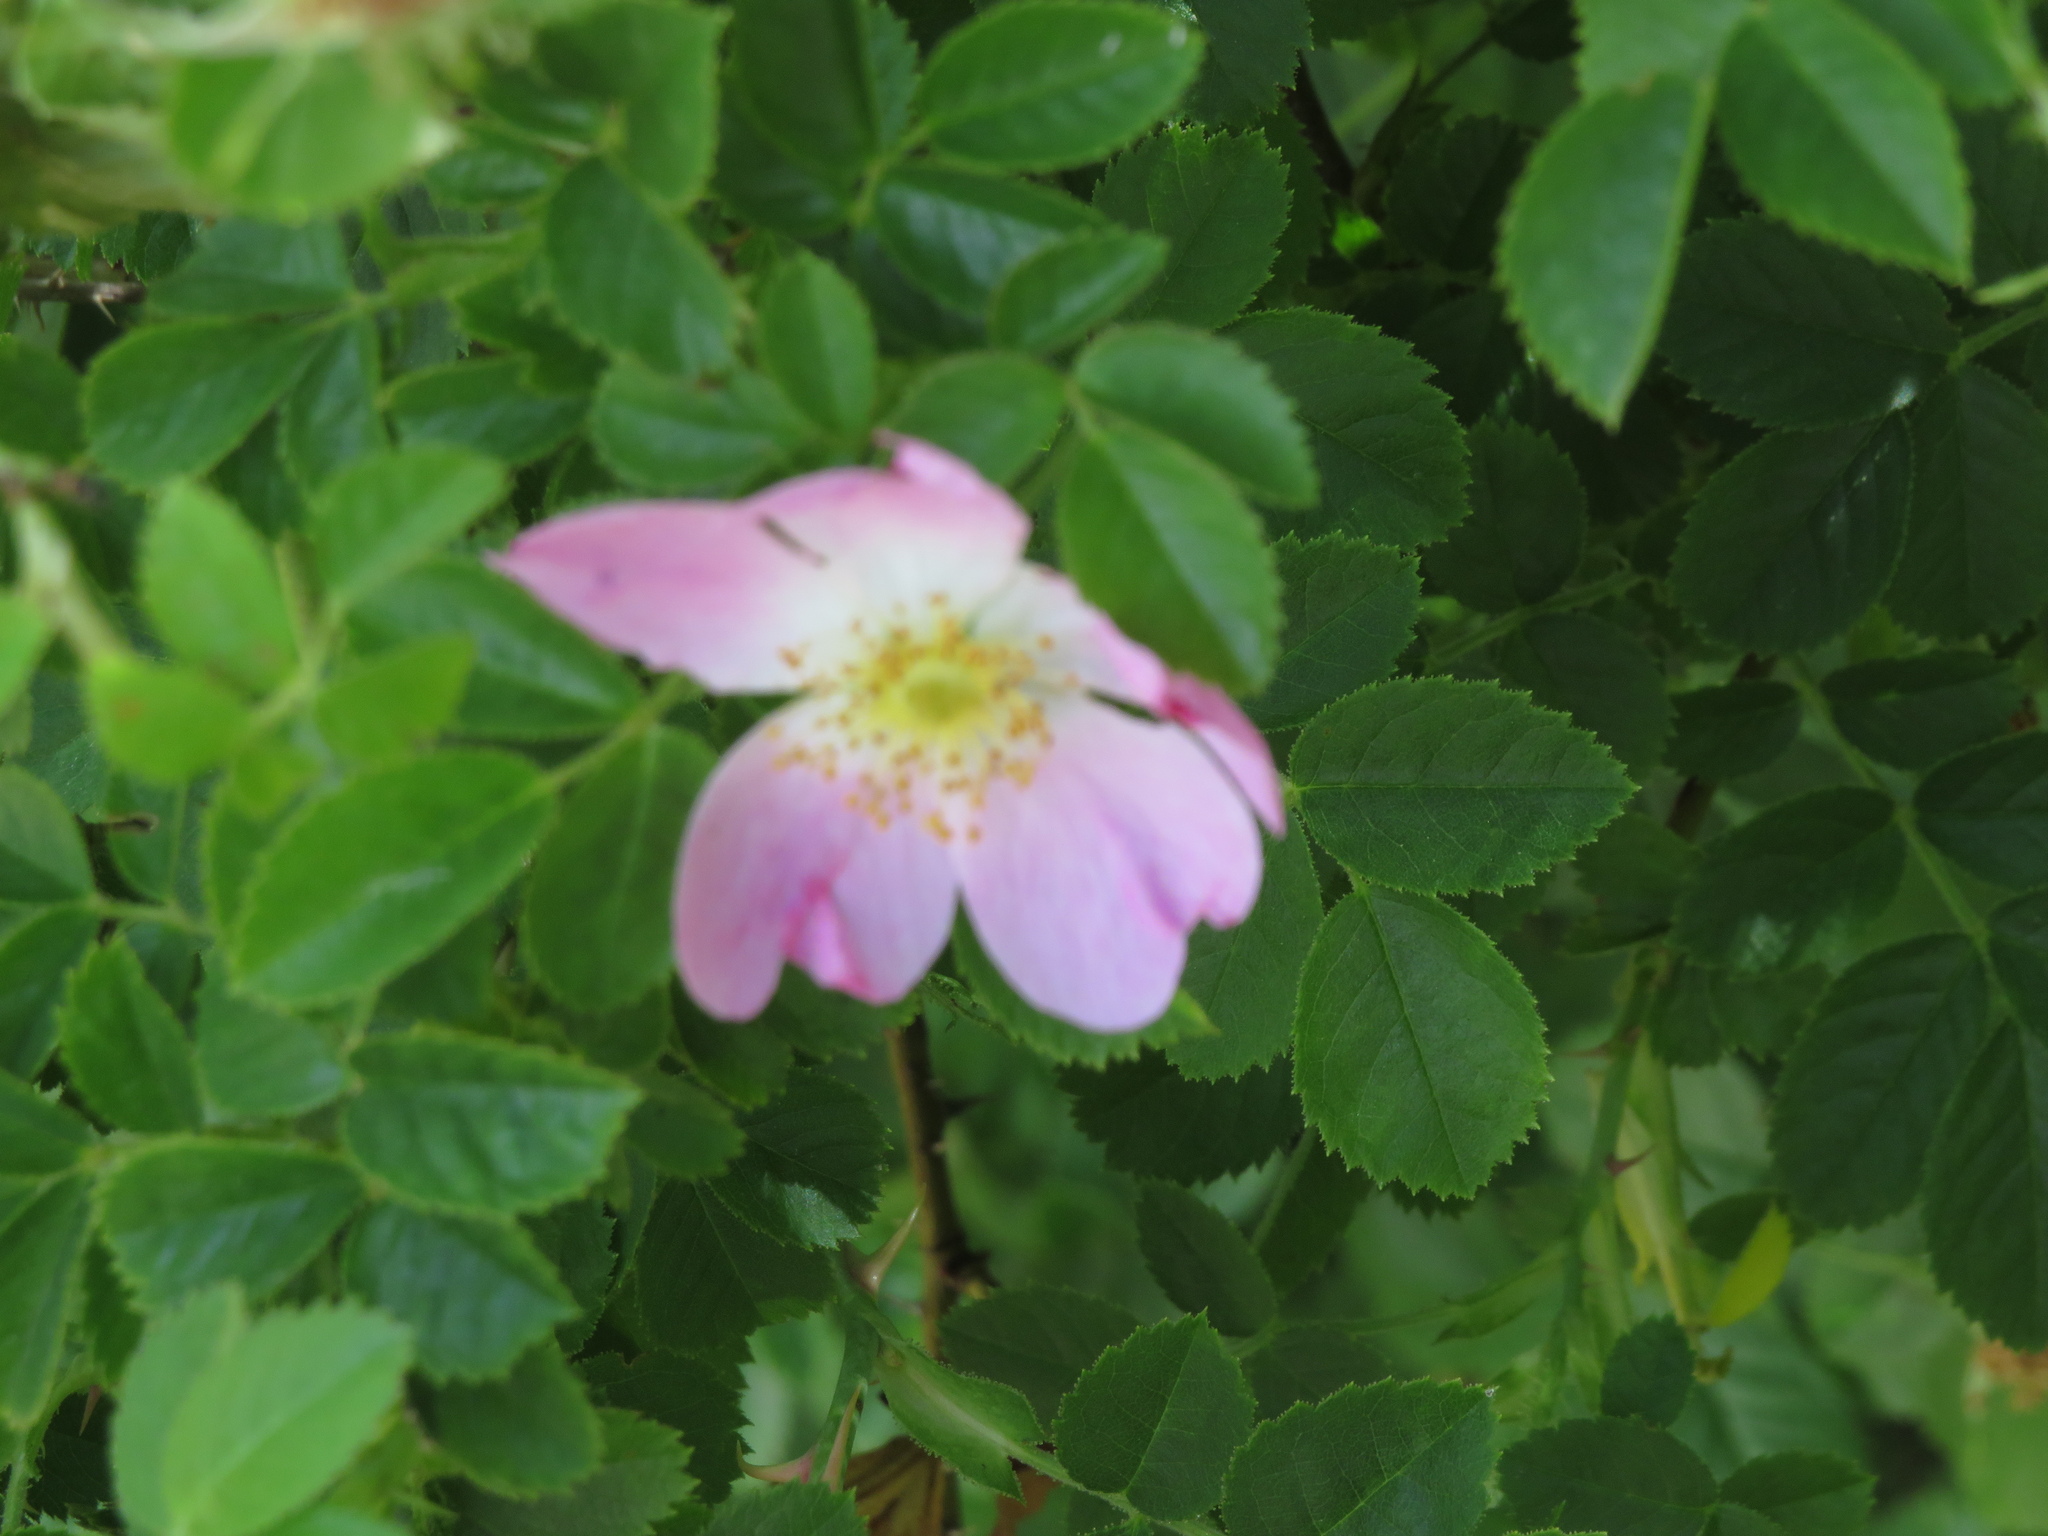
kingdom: Plantae
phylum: Tracheophyta
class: Magnoliopsida
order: Rosales
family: Rosaceae
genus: Rosa
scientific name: Rosa rubiginosa
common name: Sweet-briar
